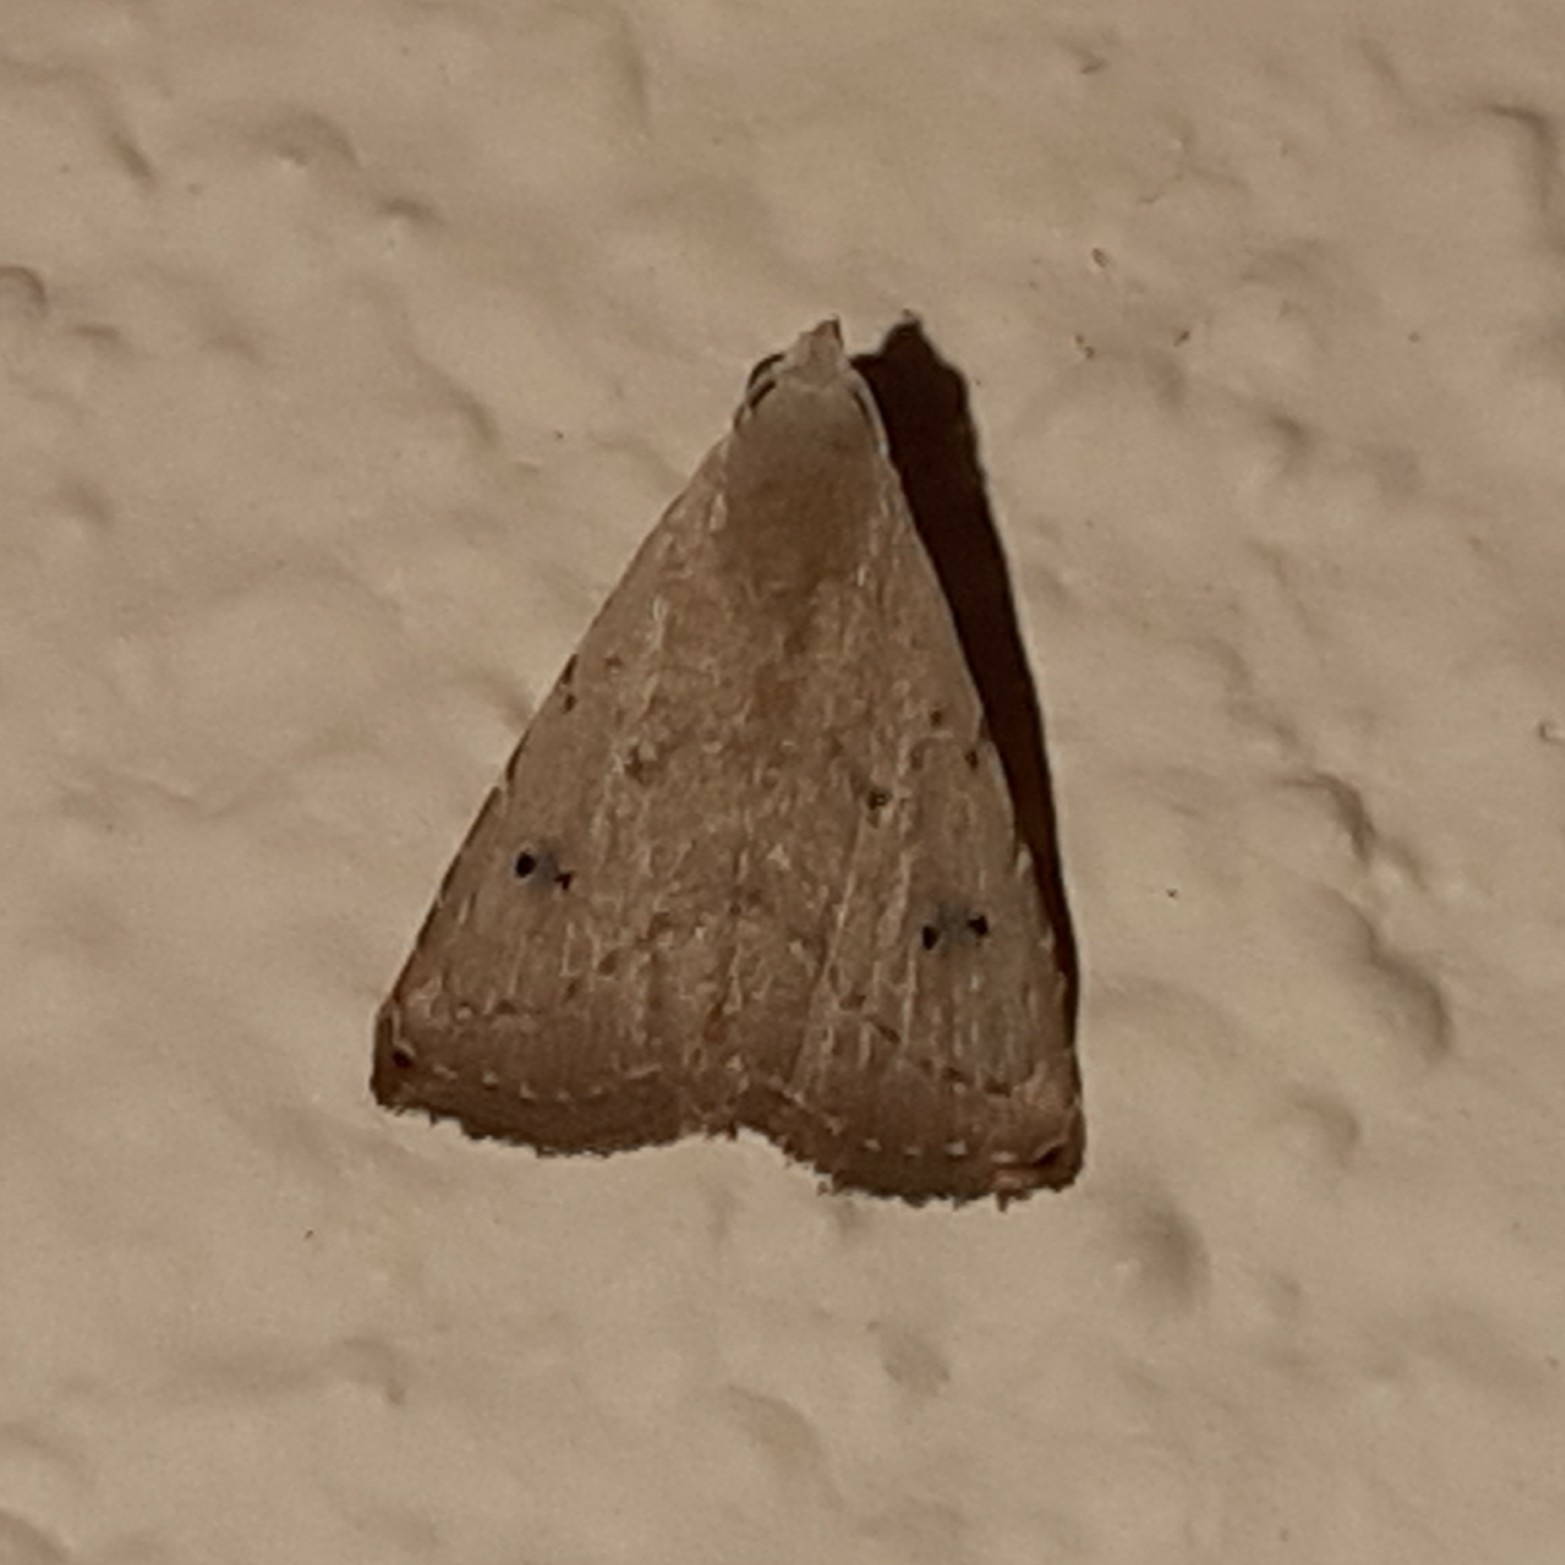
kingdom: Animalia
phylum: Arthropoda
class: Insecta
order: Lepidoptera
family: Erebidae
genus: Rivula
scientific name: Rivula pusilla
